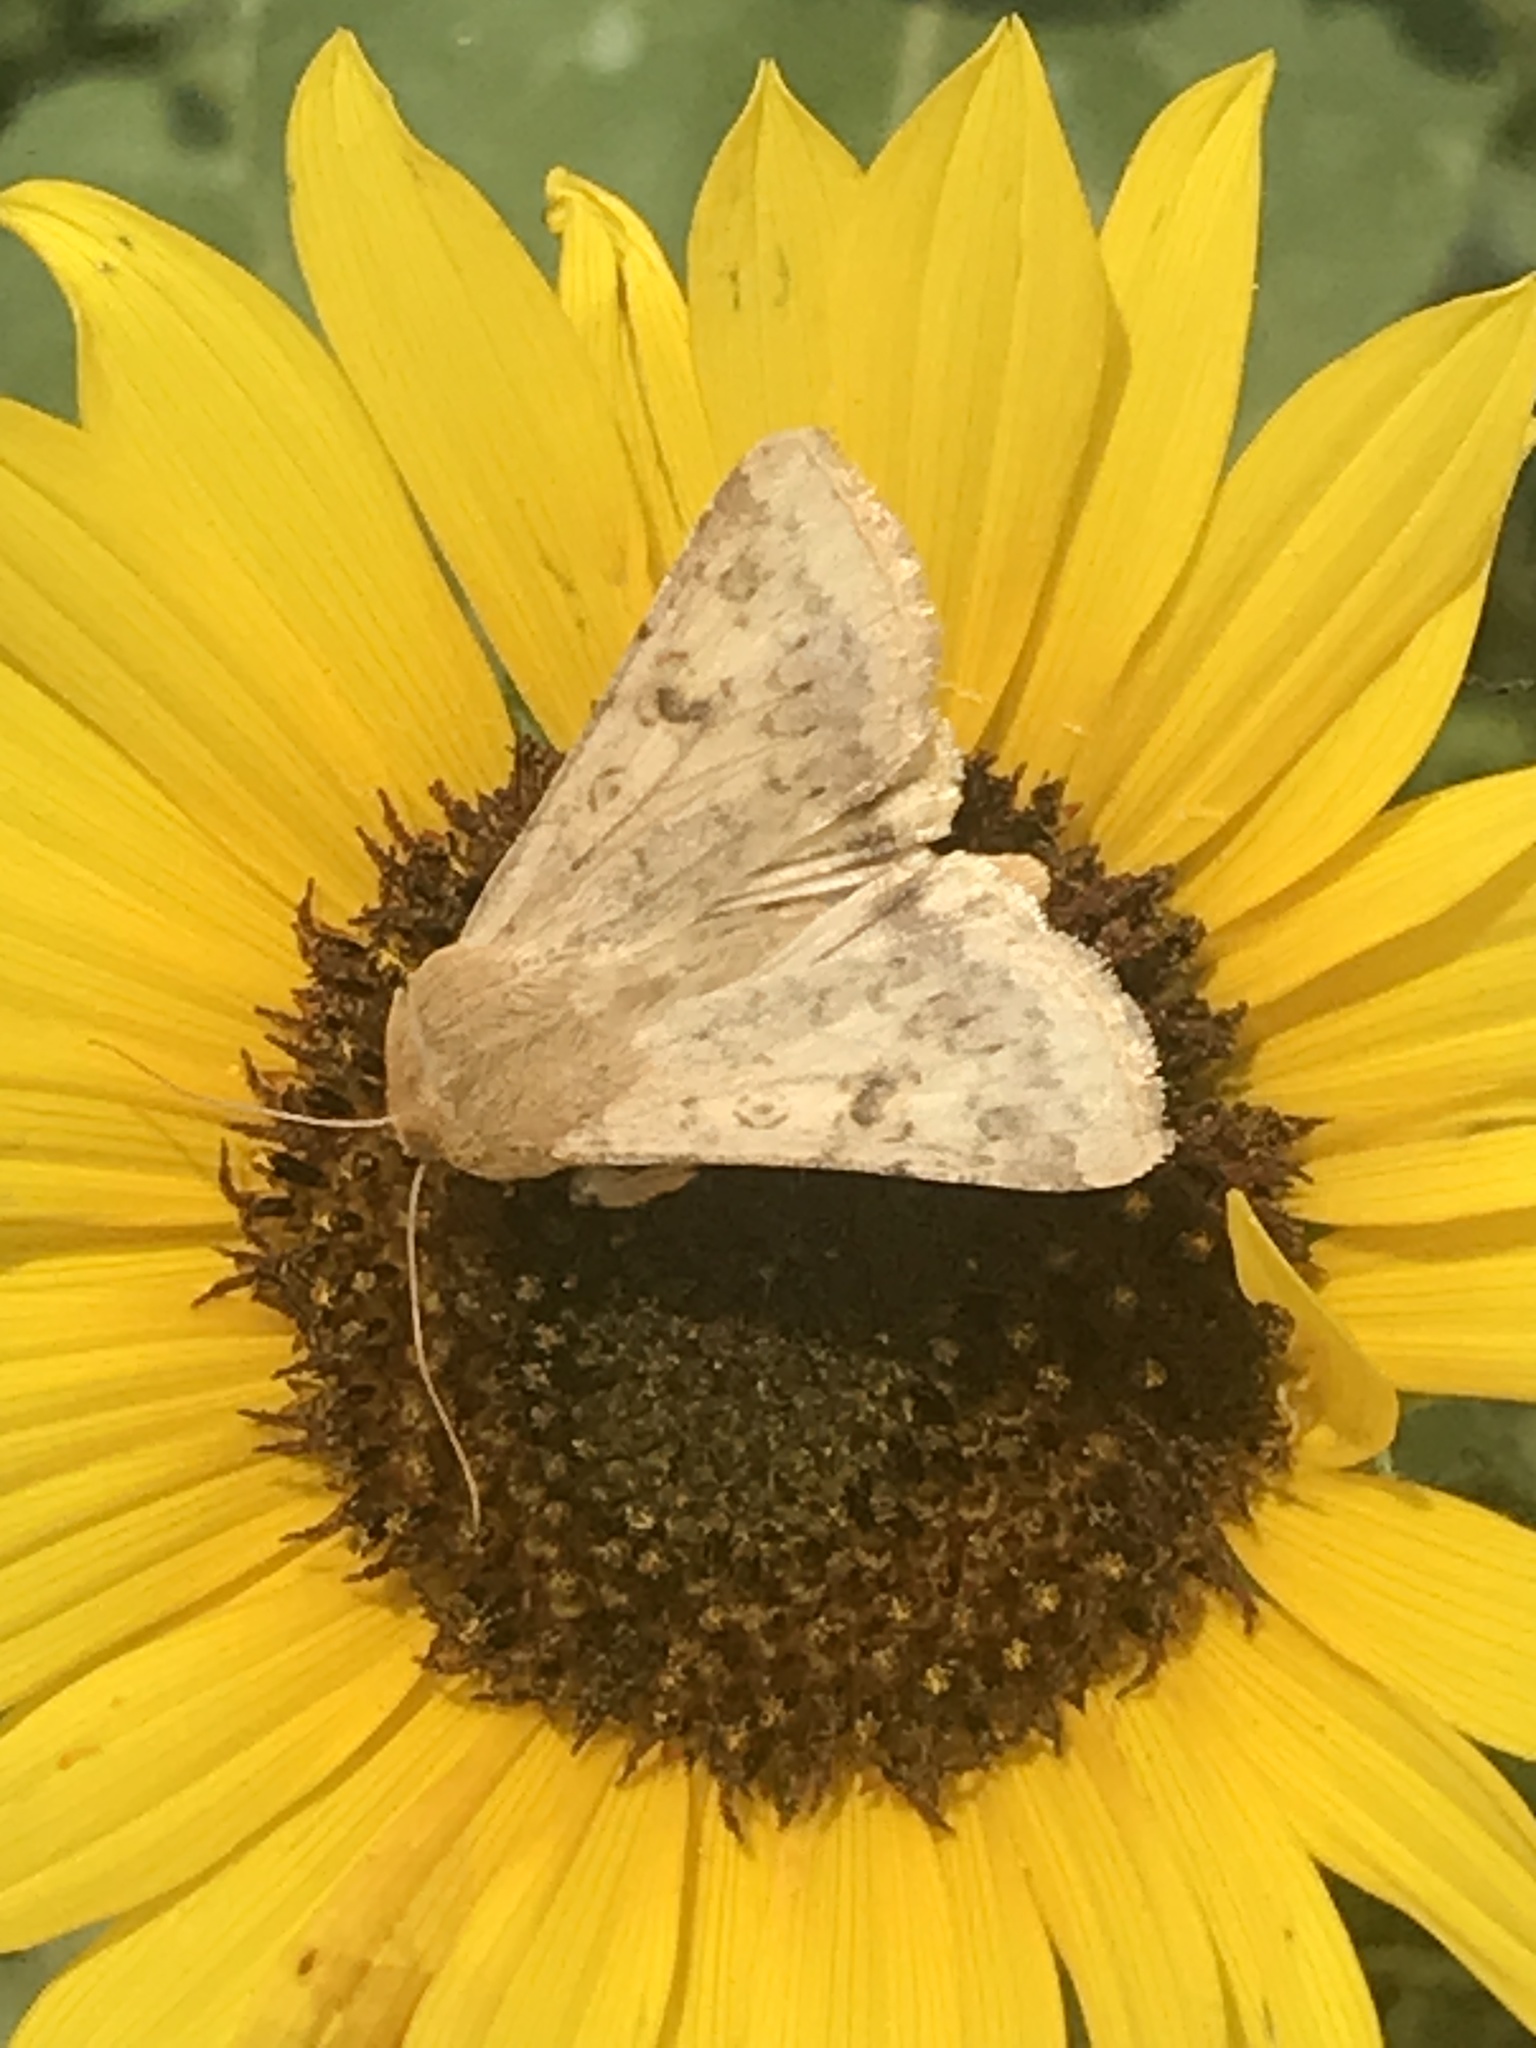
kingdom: Animalia
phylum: Arthropoda
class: Insecta
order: Lepidoptera
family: Noctuidae
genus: Helicoverpa
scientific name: Helicoverpa zea
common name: Bollworm
